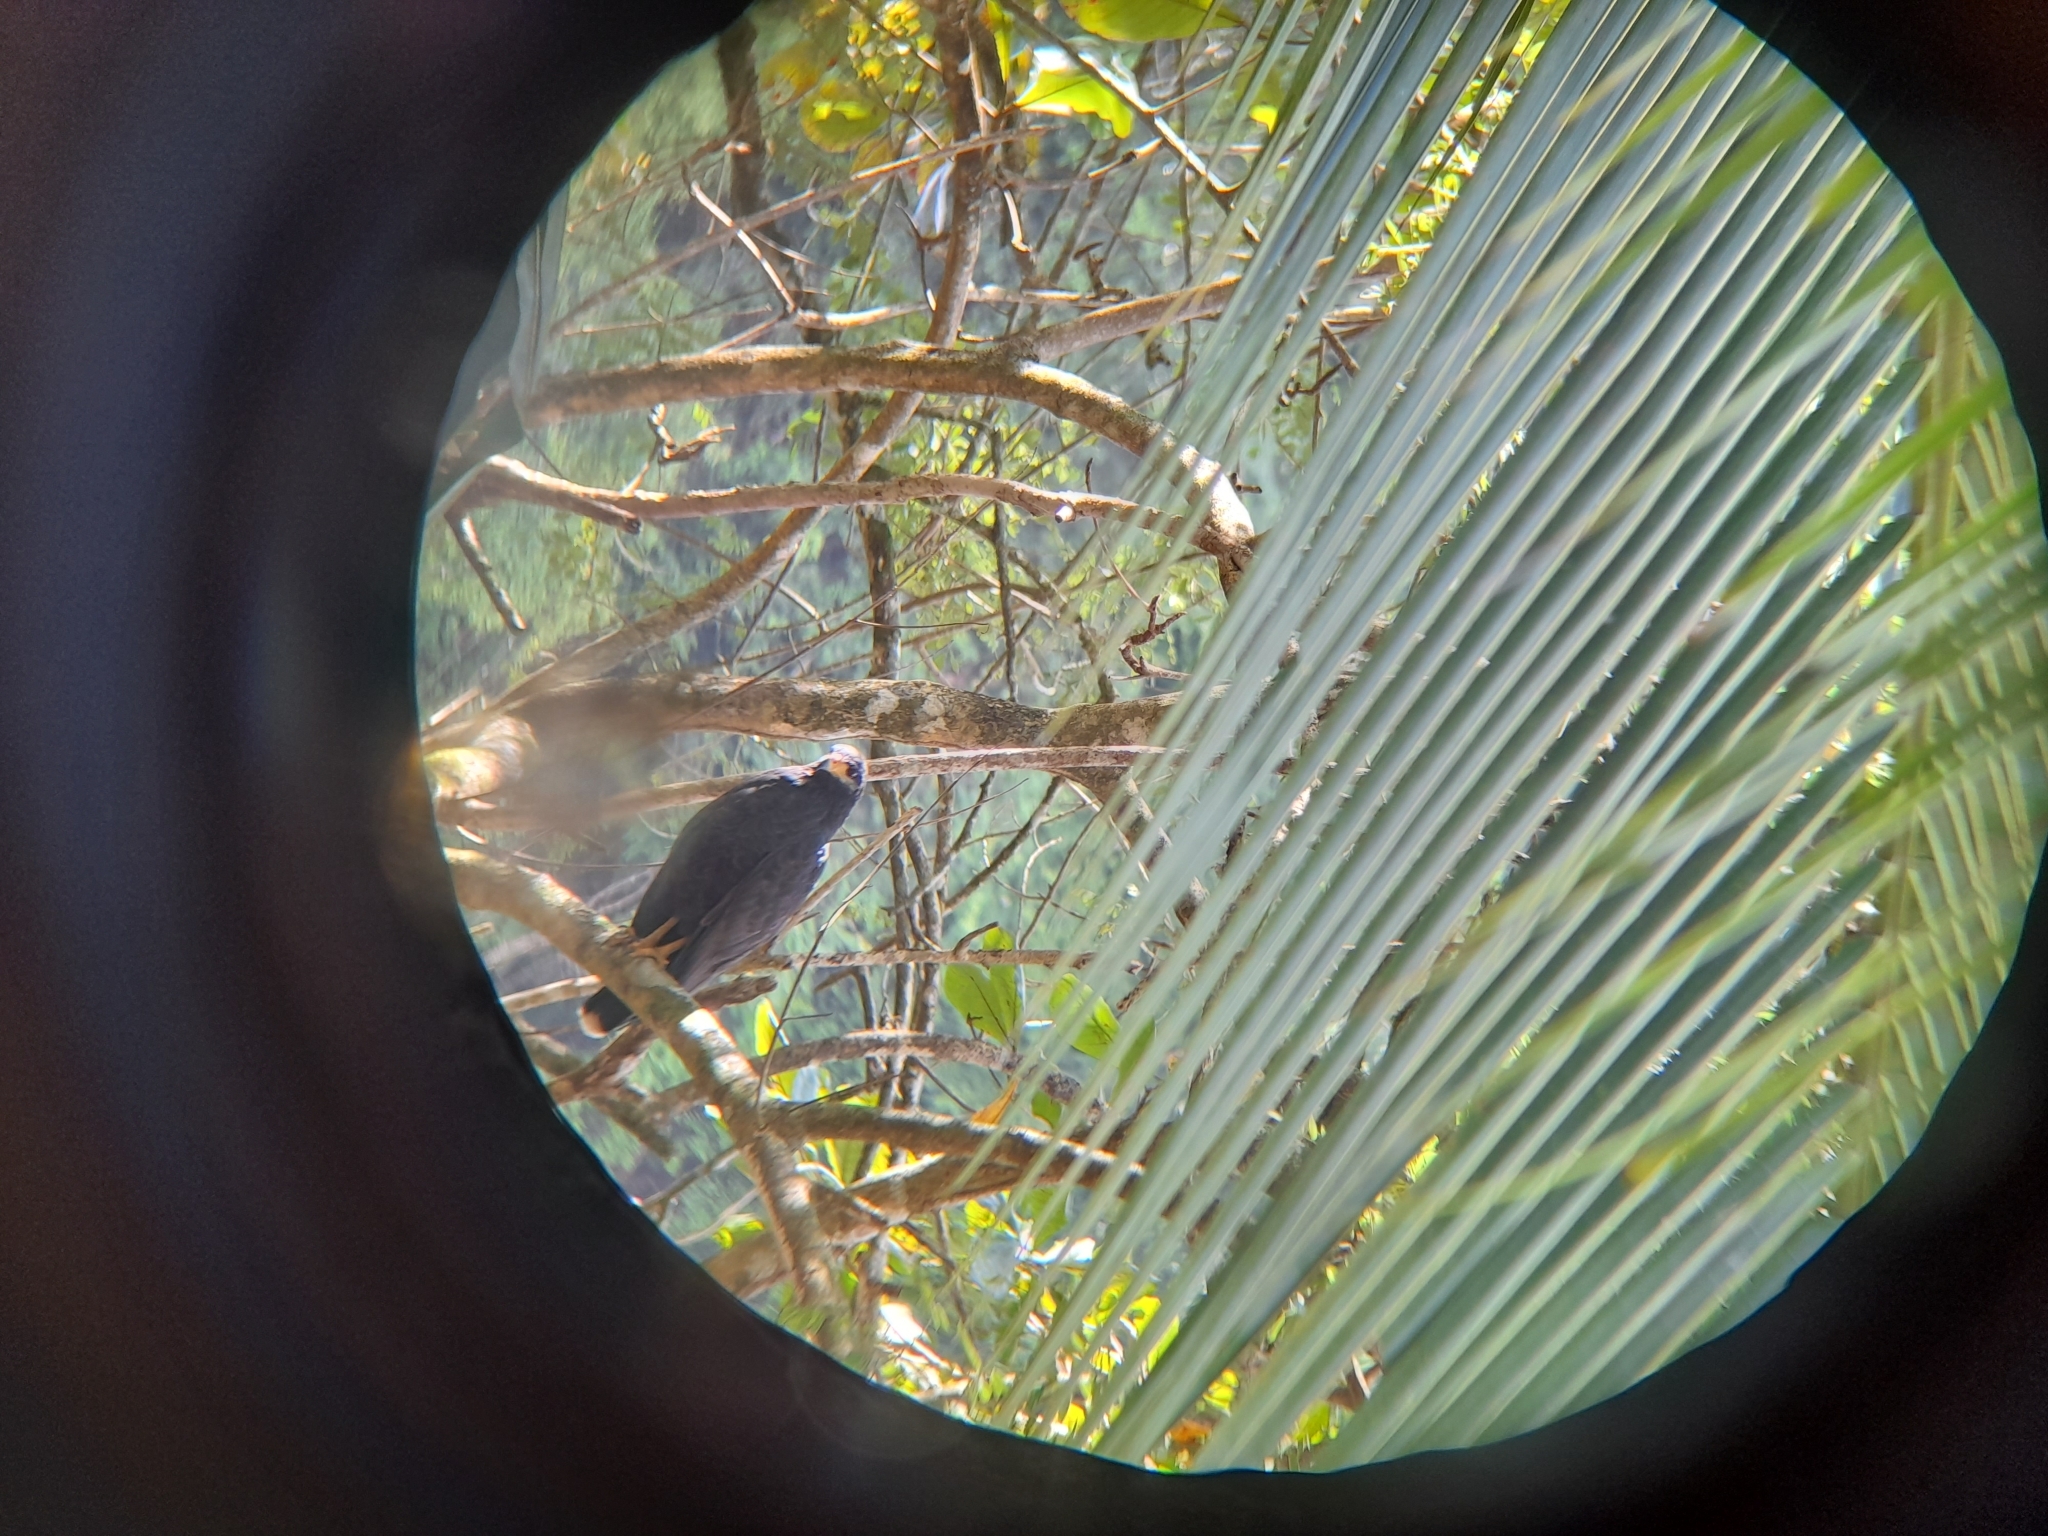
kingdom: Animalia
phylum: Chordata
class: Aves
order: Accipitriformes
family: Accipitridae
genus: Buteogallus
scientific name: Buteogallus anthracinus
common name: Common black hawk
